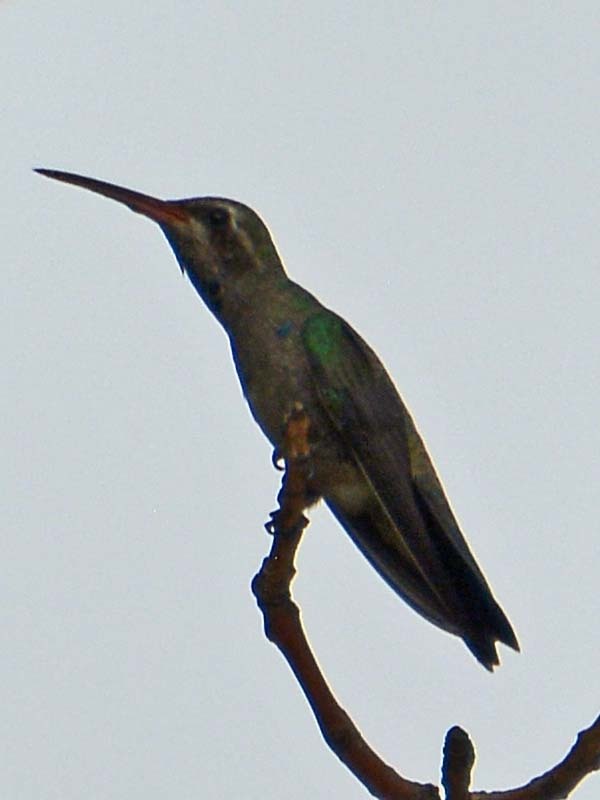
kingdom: Animalia
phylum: Chordata
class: Aves
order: Apodiformes
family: Trochilidae
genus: Cynanthus
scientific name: Cynanthus latirostris
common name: Broad-billed hummingbird
